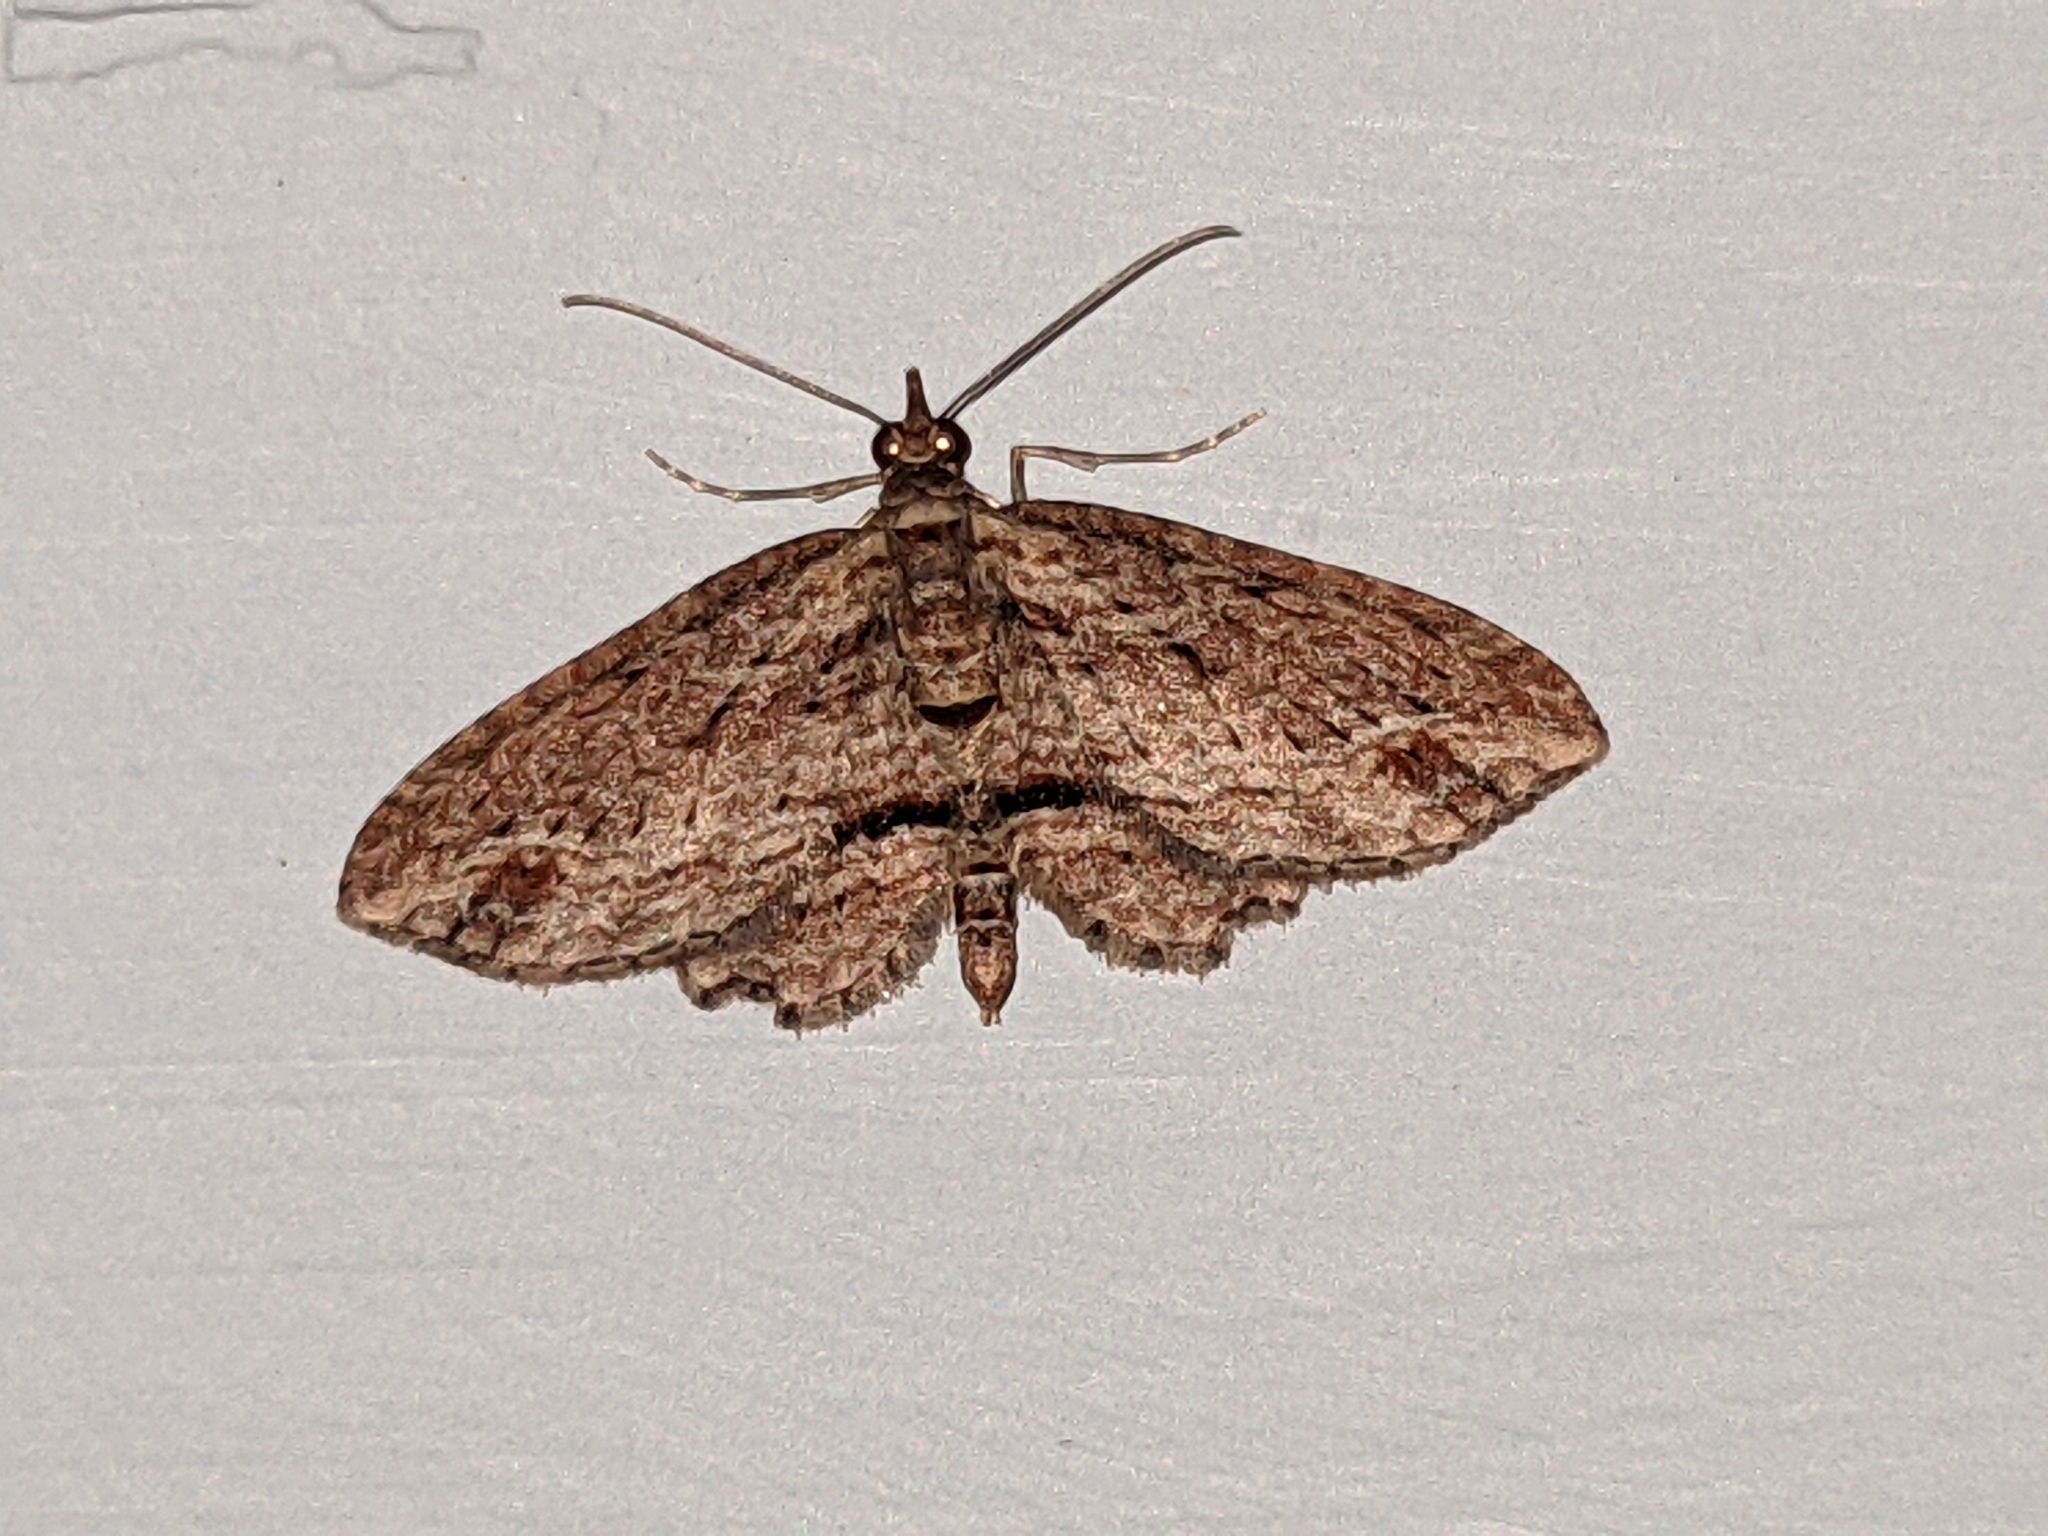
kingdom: Animalia
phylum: Arthropoda
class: Insecta
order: Lepidoptera
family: Geometridae
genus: Chloroclystis
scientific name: Chloroclystis filata
